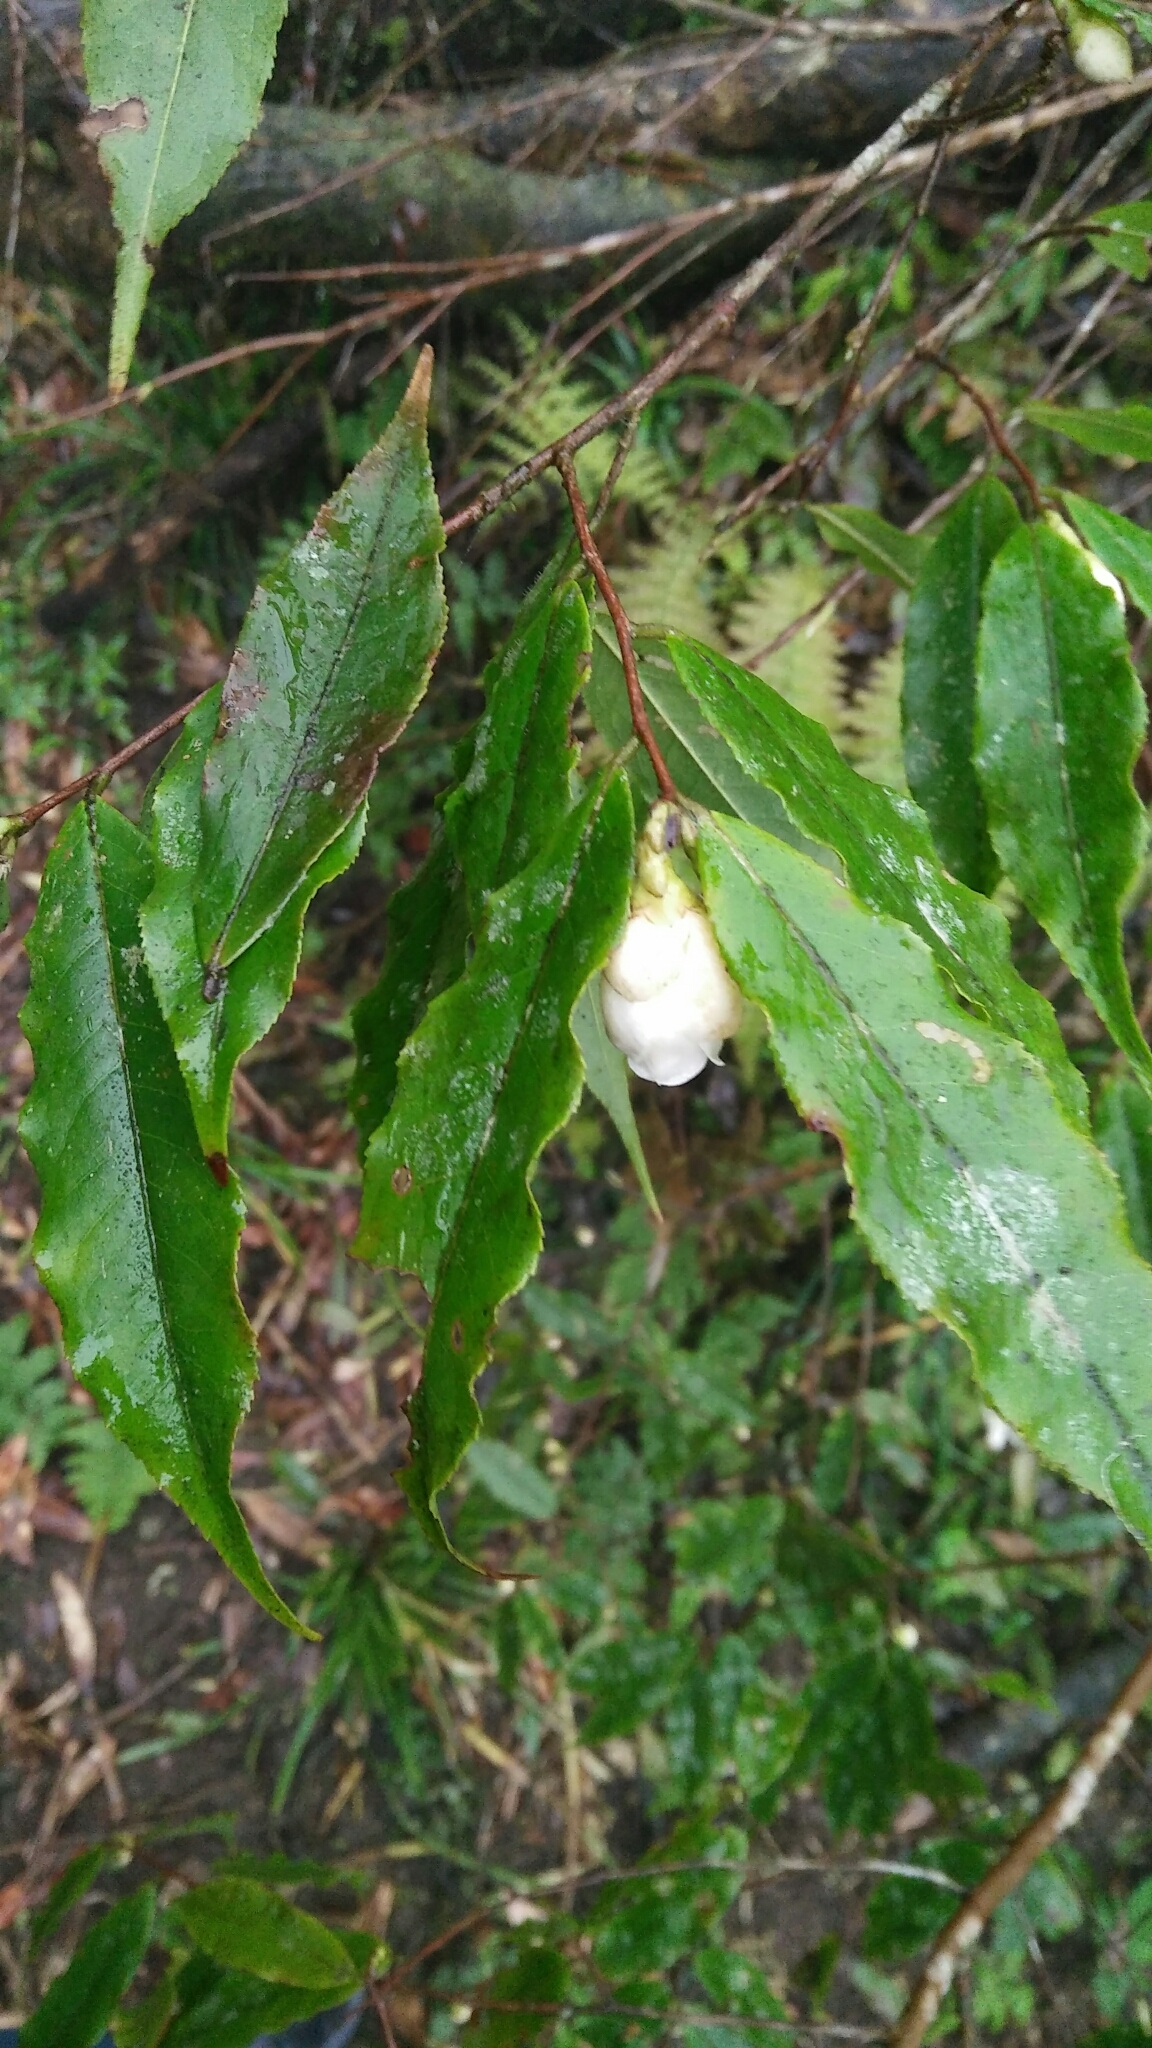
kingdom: Plantae
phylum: Tracheophyta
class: Magnoliopsida
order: Ericales
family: Theaceae
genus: Camellia
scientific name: Camellia caudata
